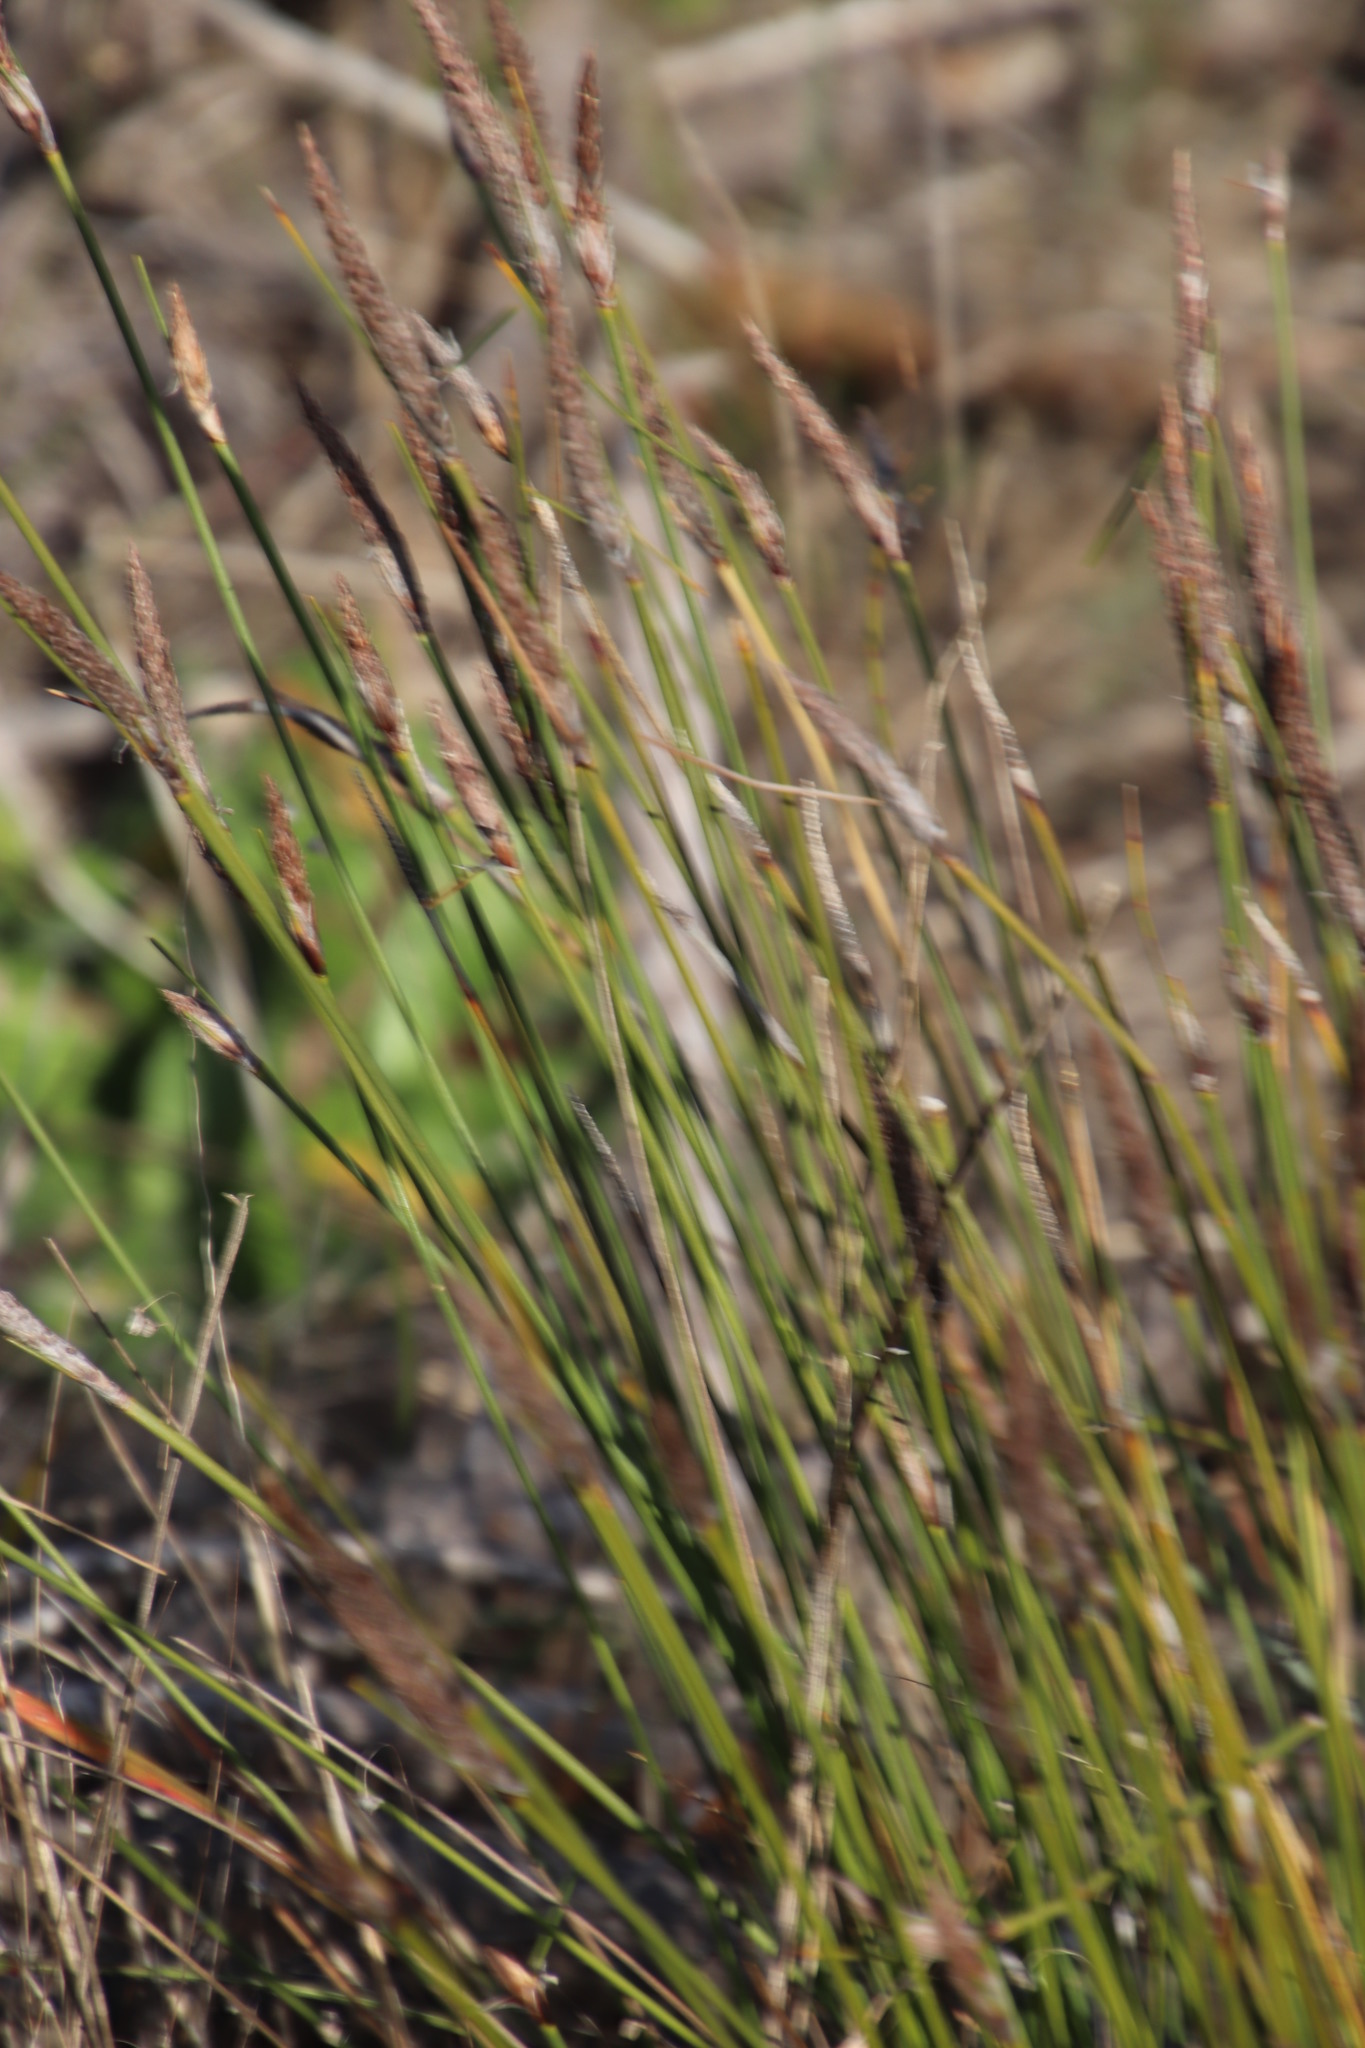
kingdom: Plantae
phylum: Tracheophyta
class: Liliopsida
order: Poales
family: Cyperaceae
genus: Ficinia
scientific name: Ficinia deusta
